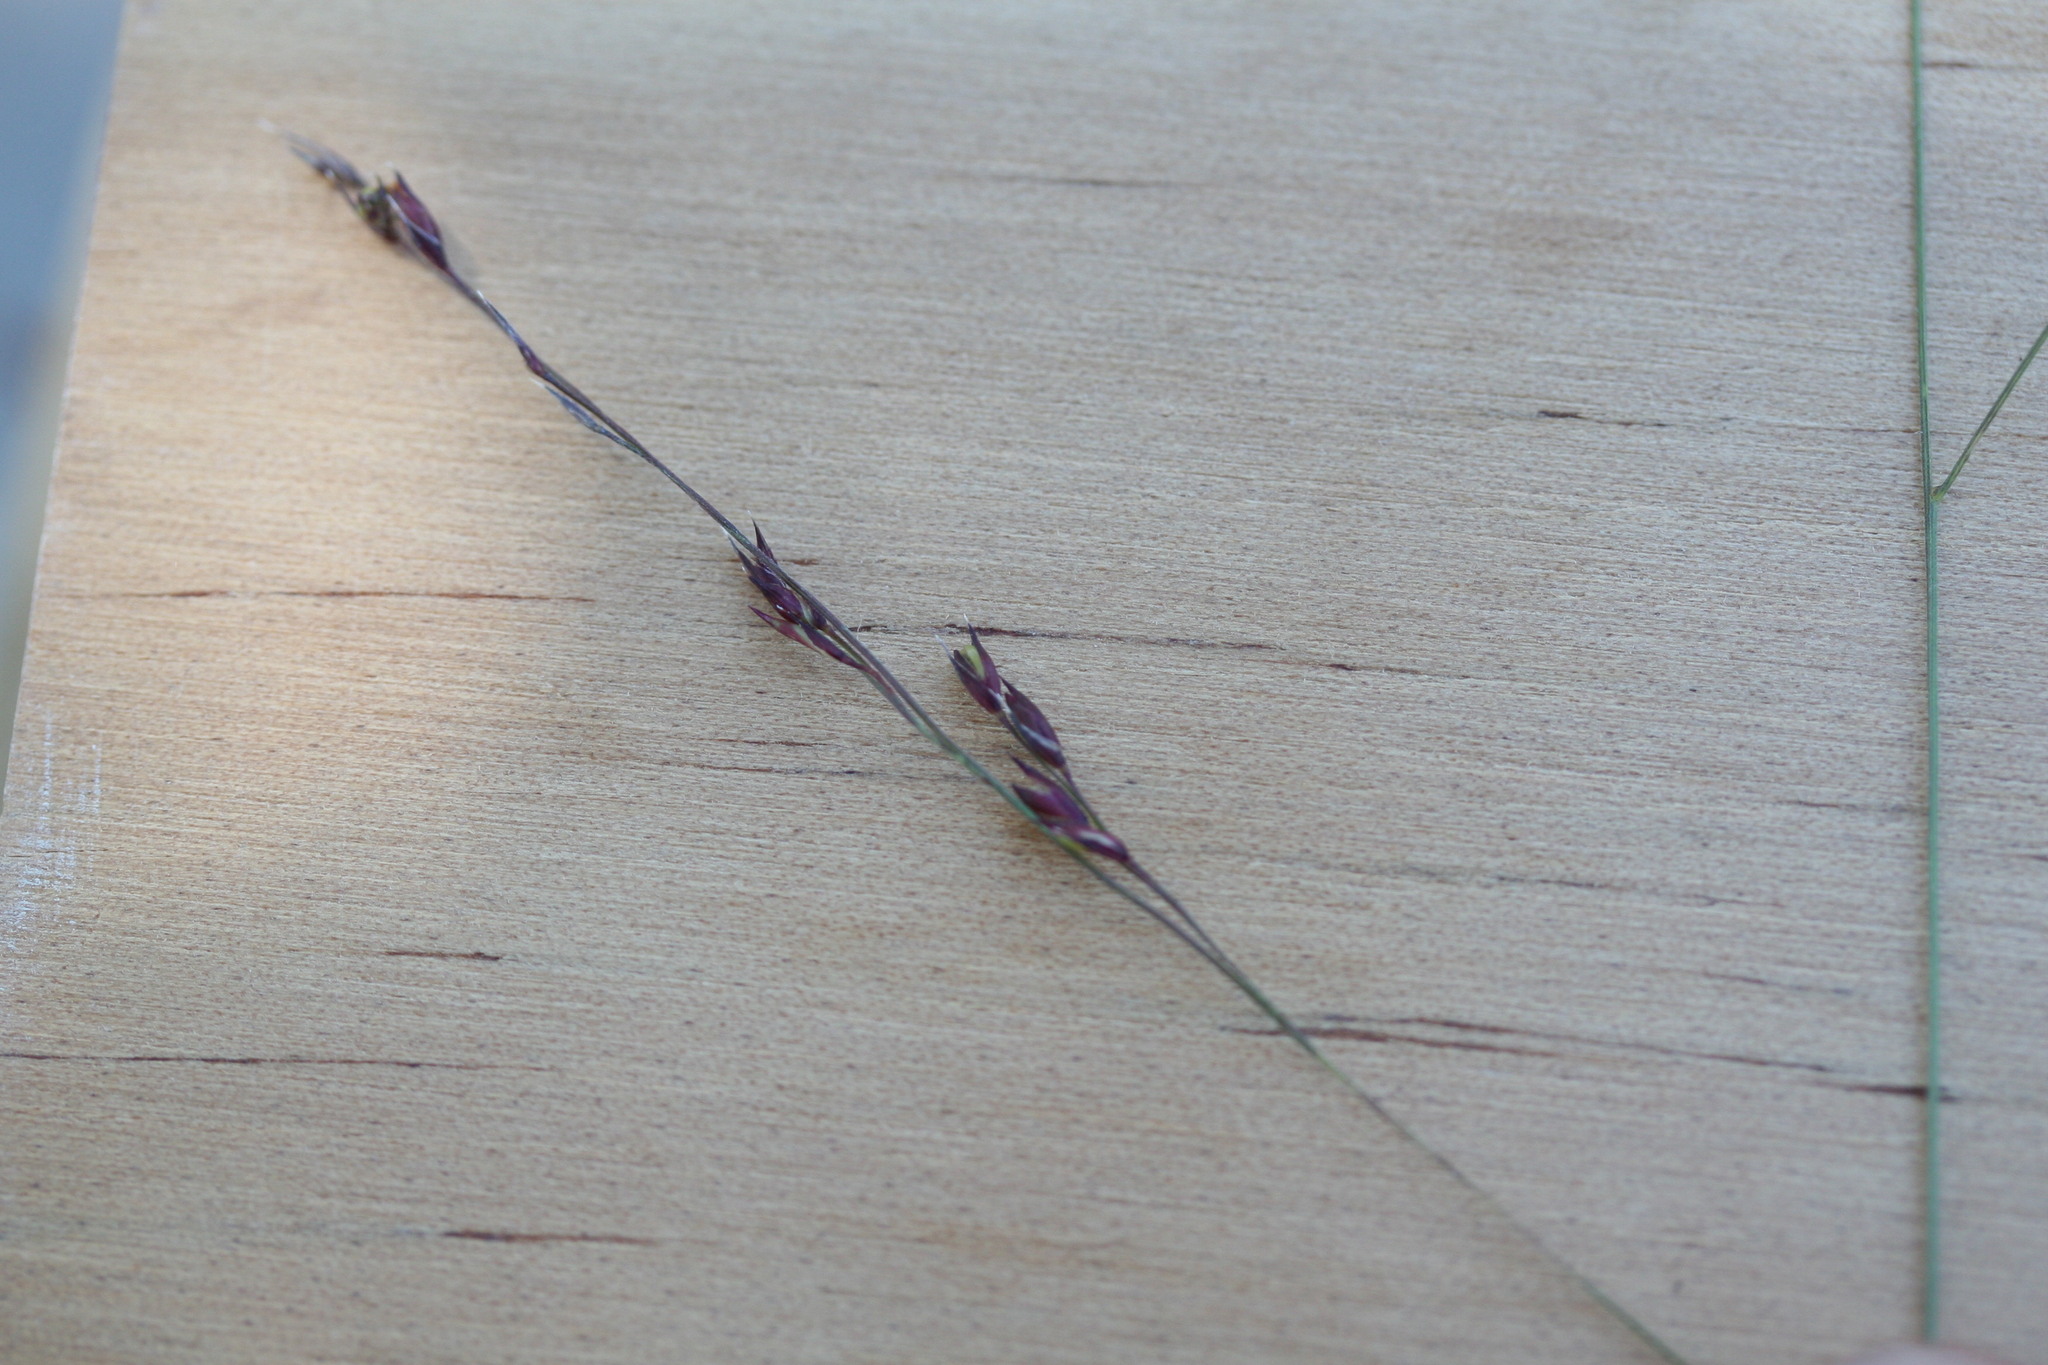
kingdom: Plantae
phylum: Tracheophyta
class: Liliopsida
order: Poales
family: Poaceae
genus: Panicum
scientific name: Panicum trachyrhachis
